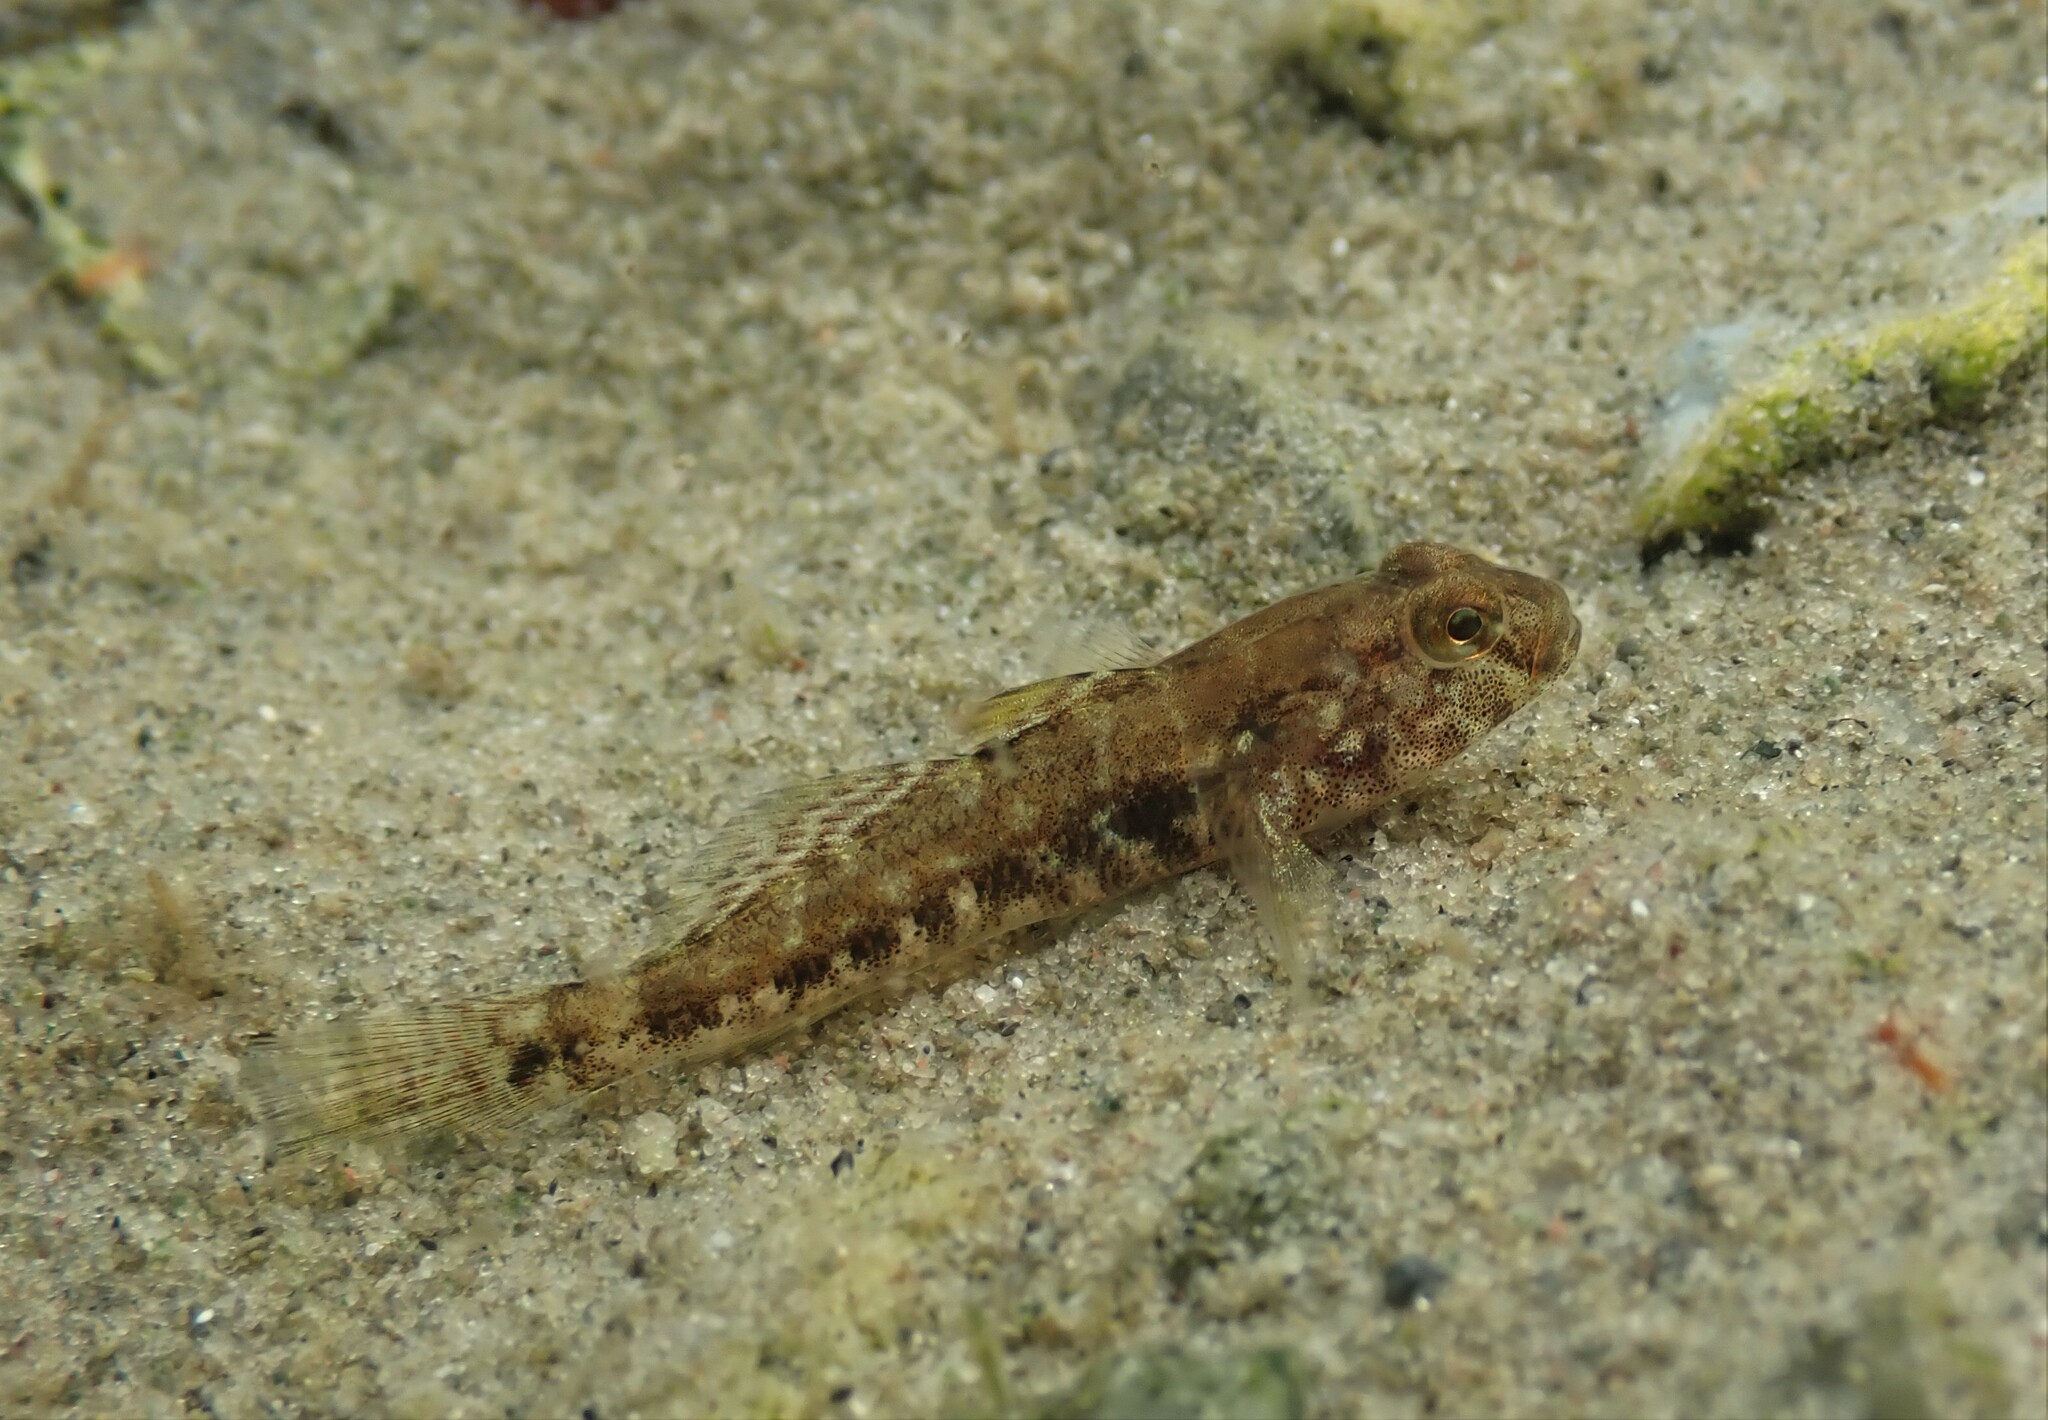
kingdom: Animalia
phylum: Chordata
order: Perciformes
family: Gobiidae
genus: Gobius
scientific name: Gobius niger
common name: Black goby
